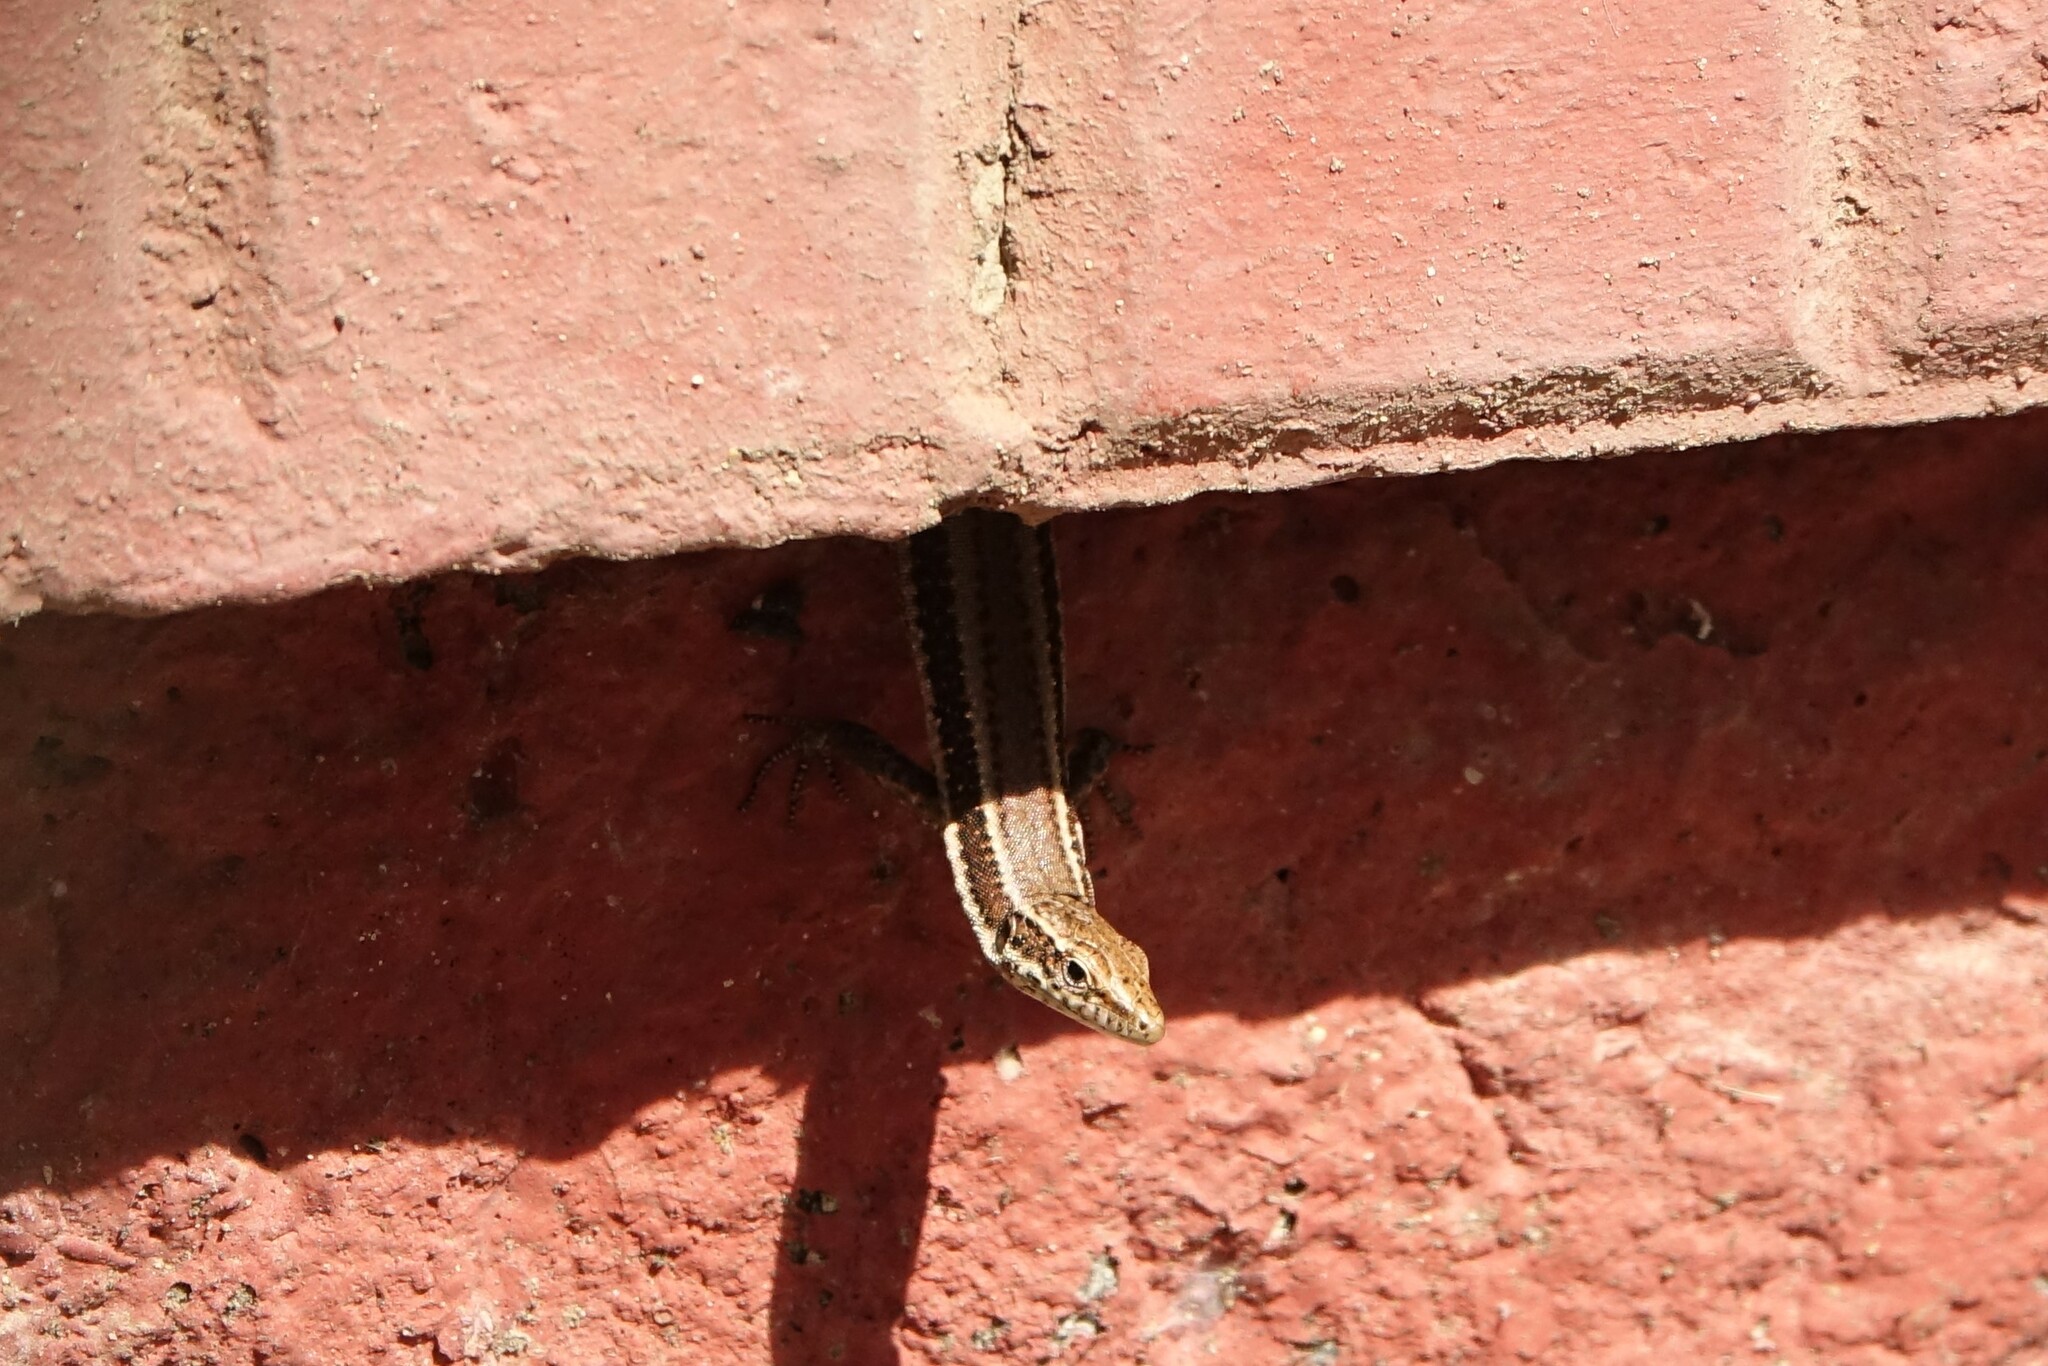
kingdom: Animalia
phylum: Chordata
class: Squamata
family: Lacertidae
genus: Teira
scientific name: Teira dugesii
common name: Madeira lizard
